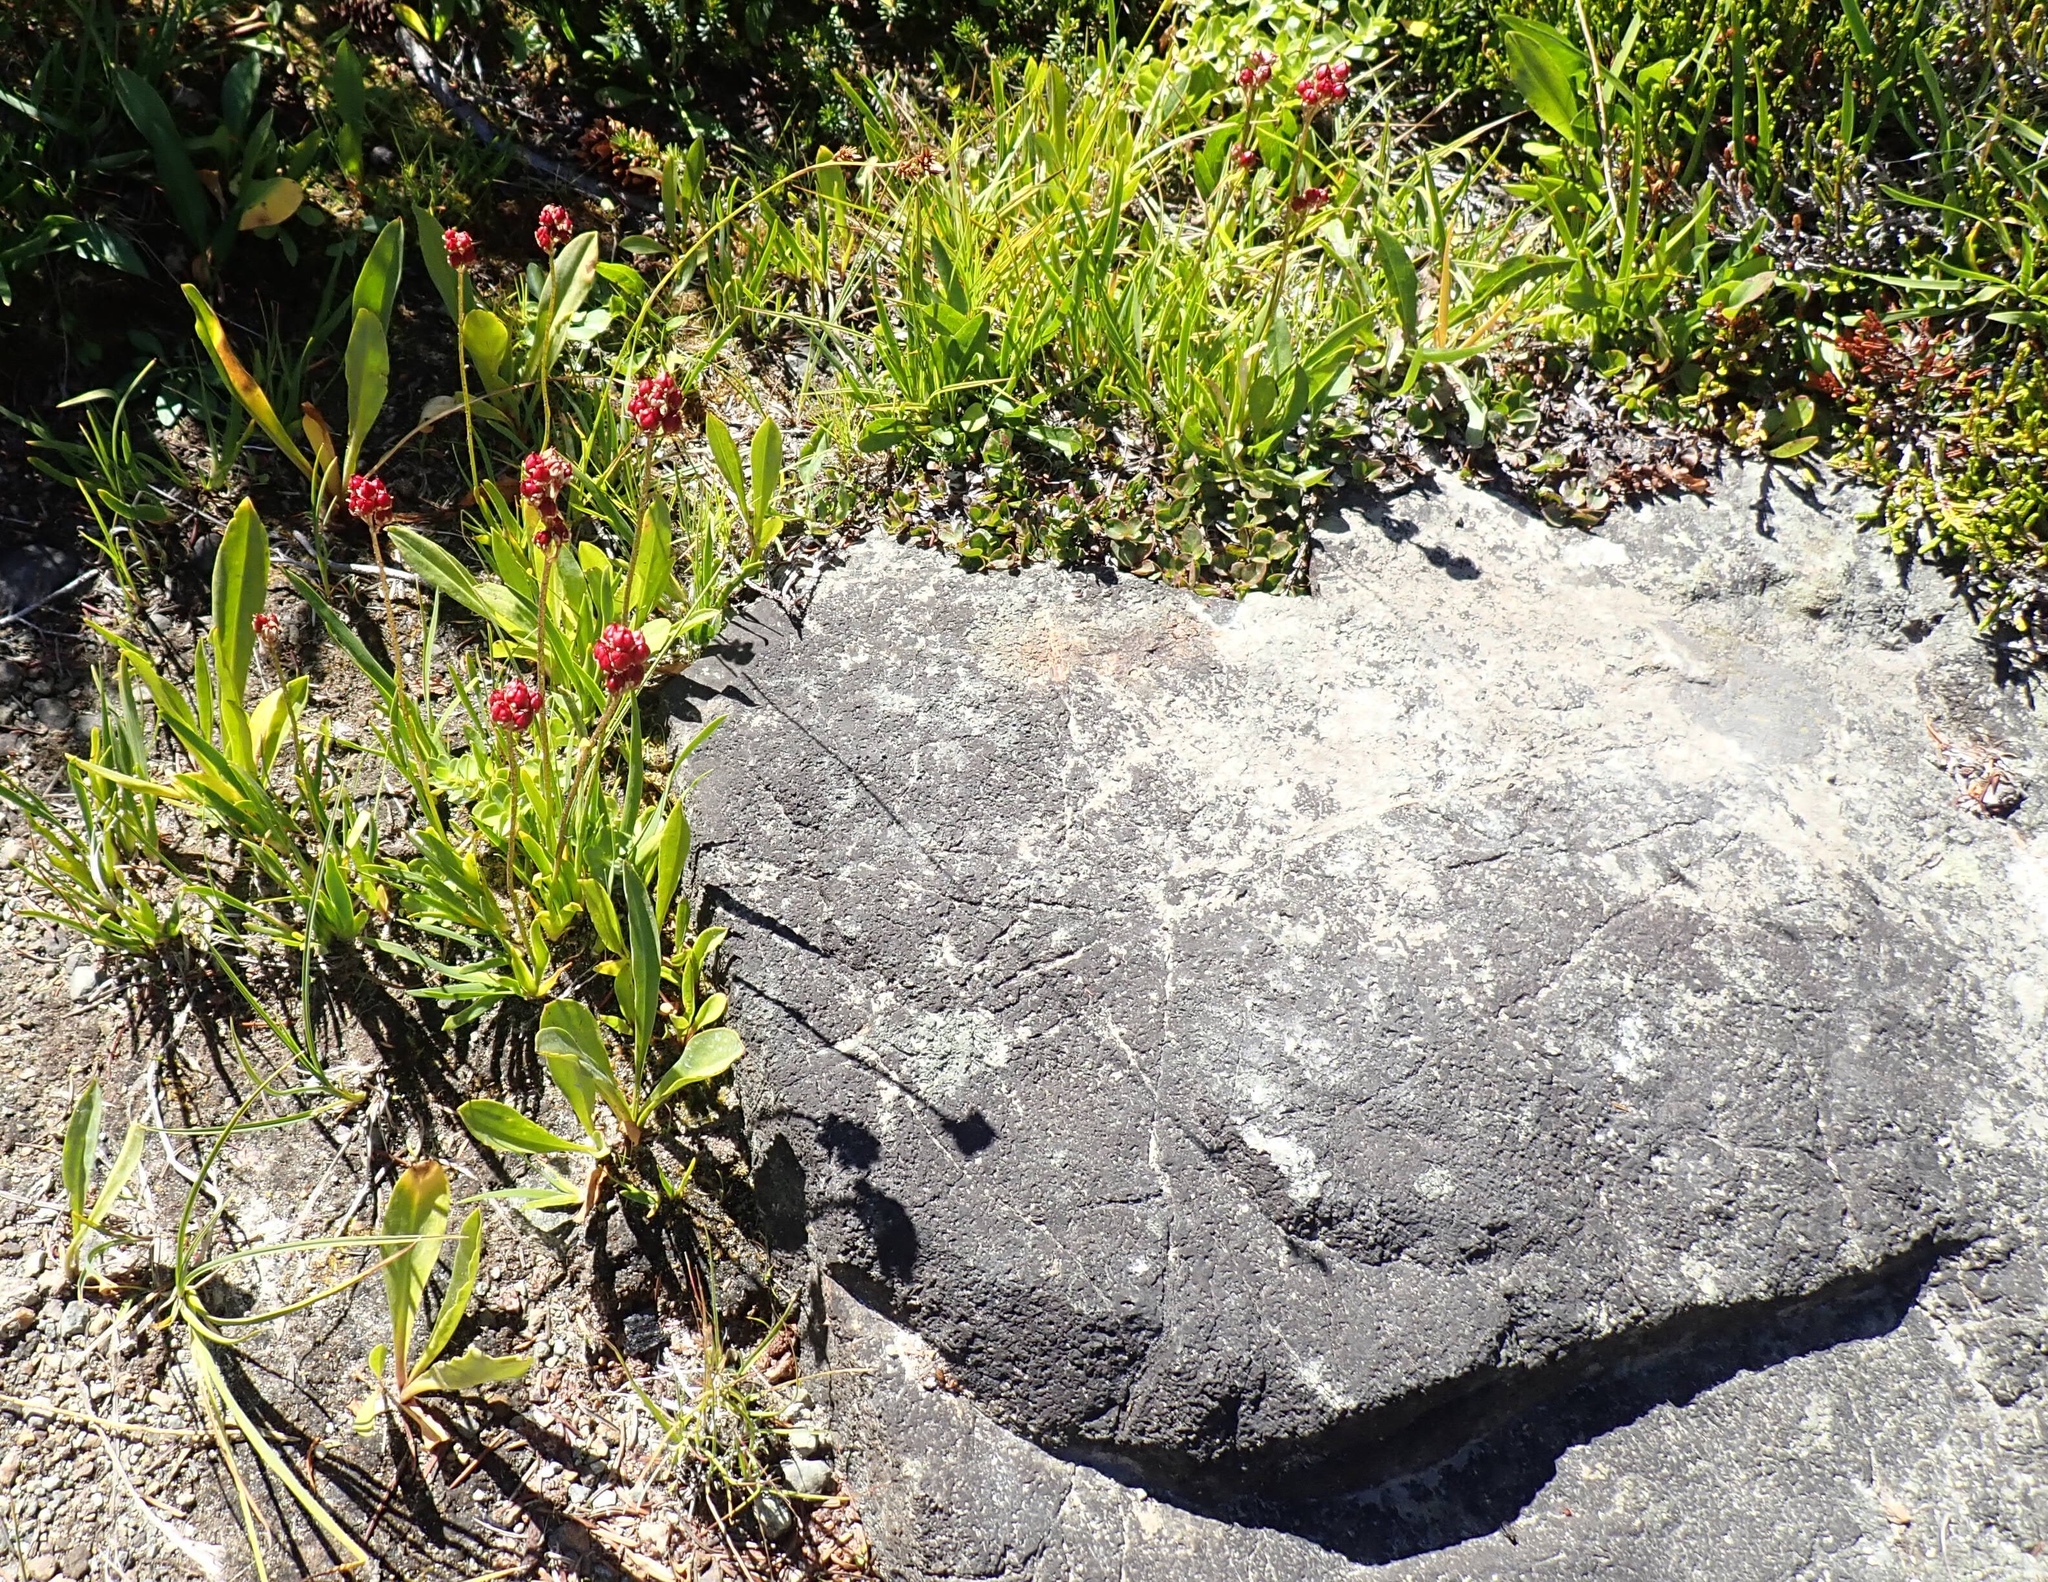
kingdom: Plantae
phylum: Tracheophyta
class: Liliopsida
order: Alismatales
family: Tofieldiaceae
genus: Triantha
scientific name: Triantha occidentalis
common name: Western false asphodel
